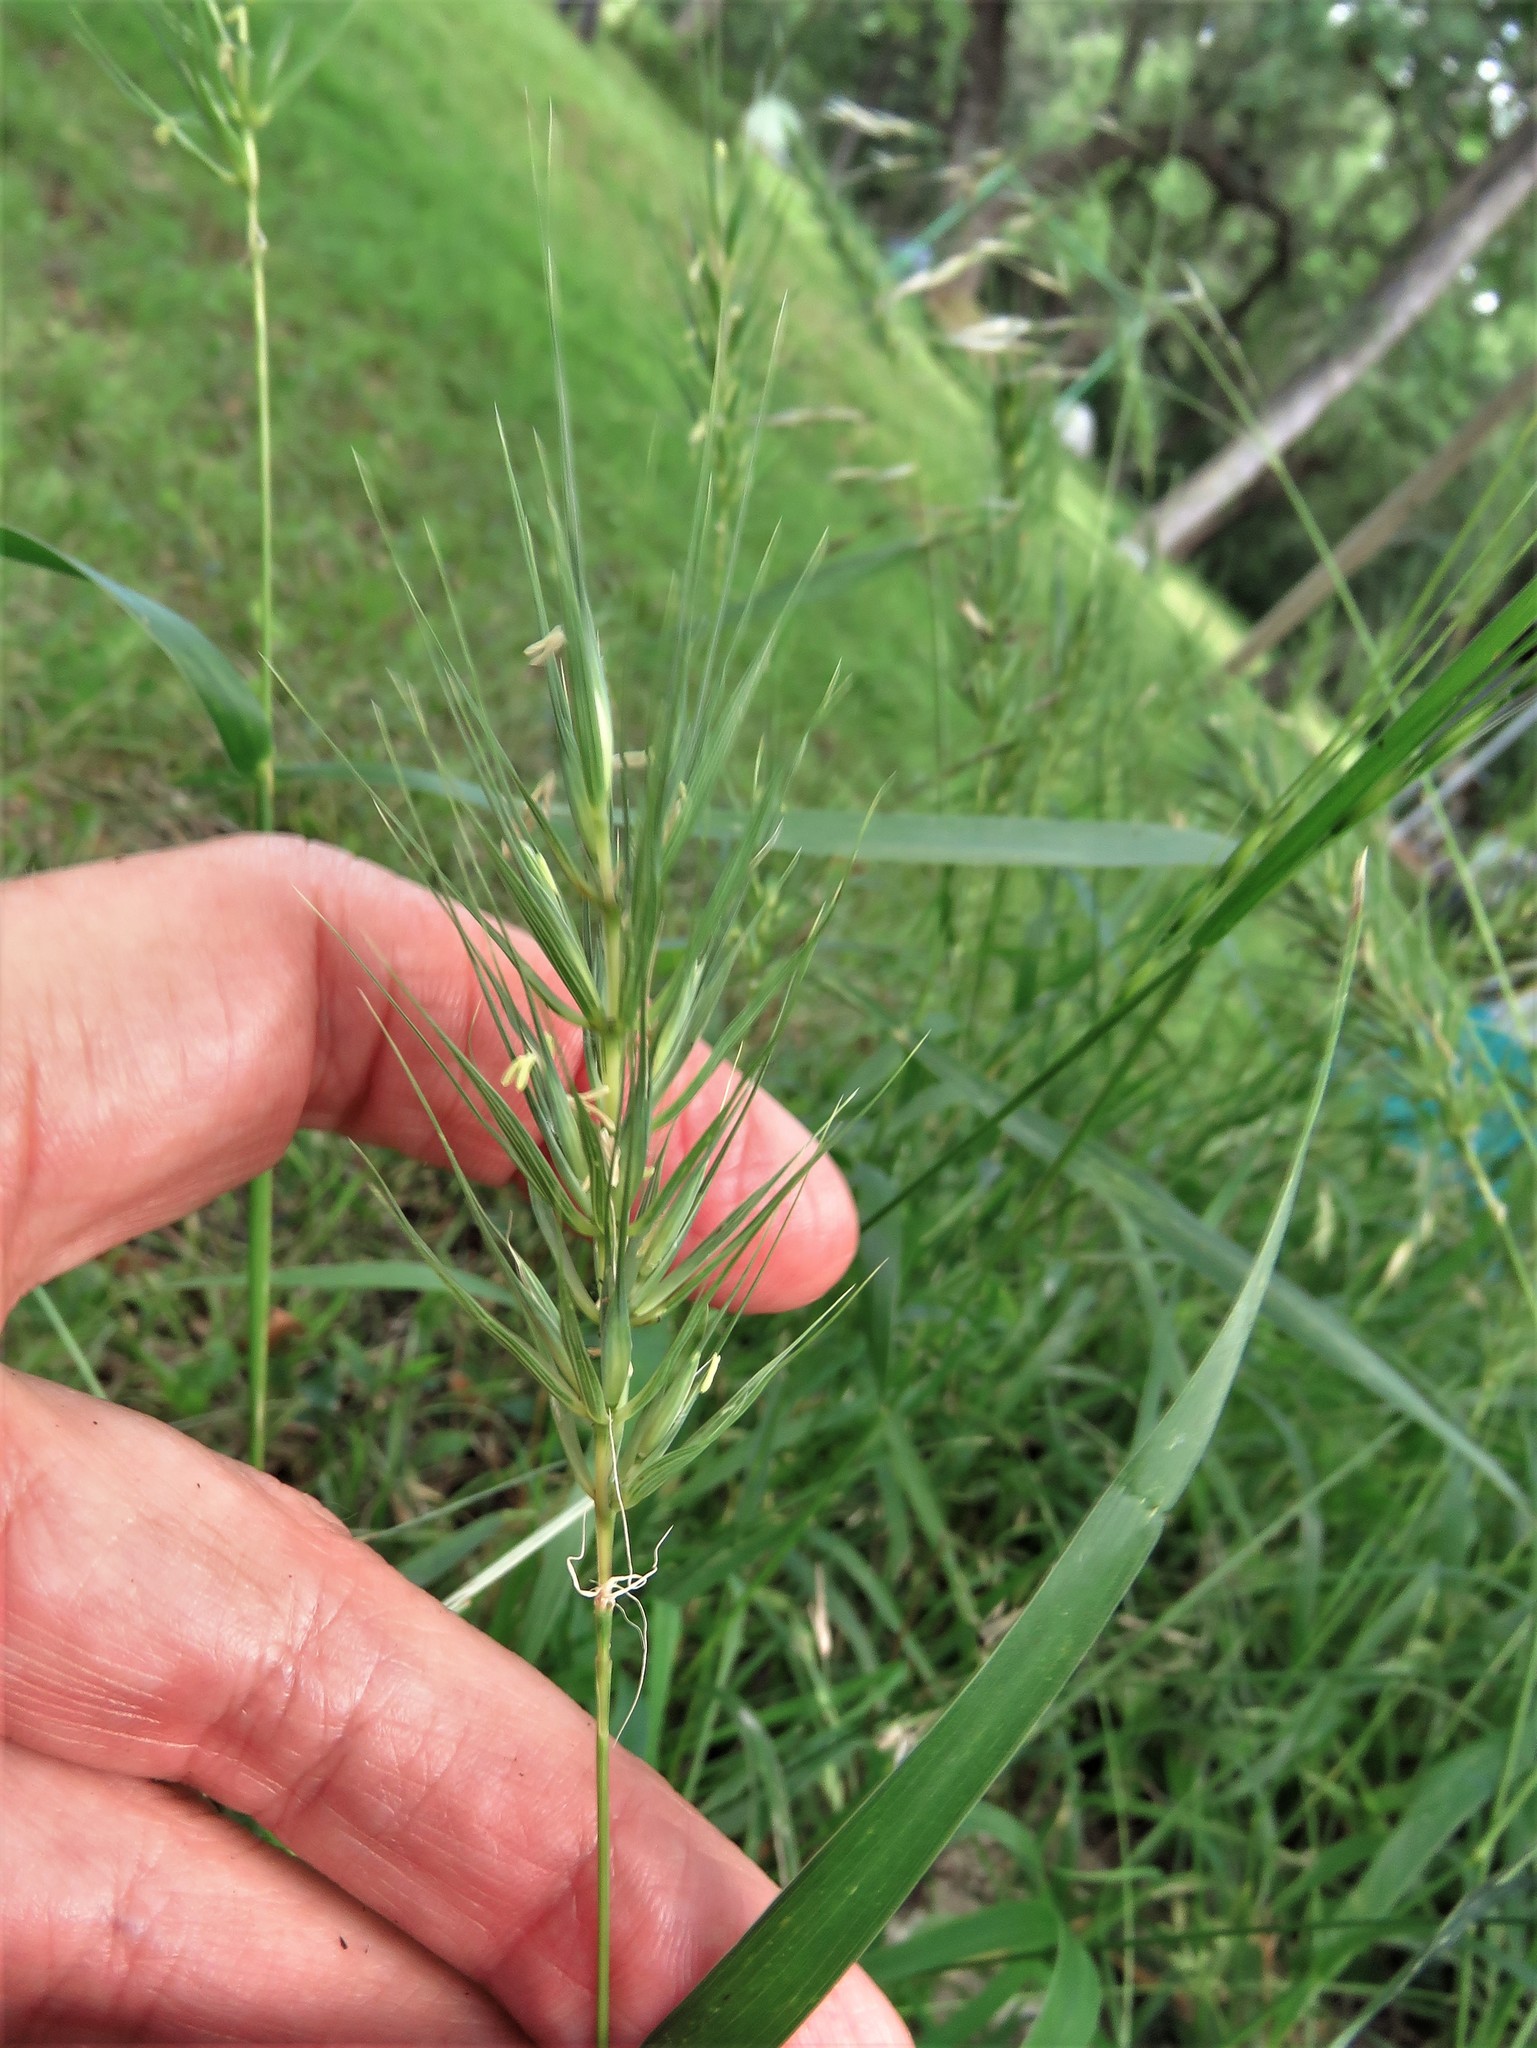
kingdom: Plantae
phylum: Tracheophyta
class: Liliopsida
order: Poales
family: Poaceae
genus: Elymus
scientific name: Elymus macgregorii
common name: Early wild rye
